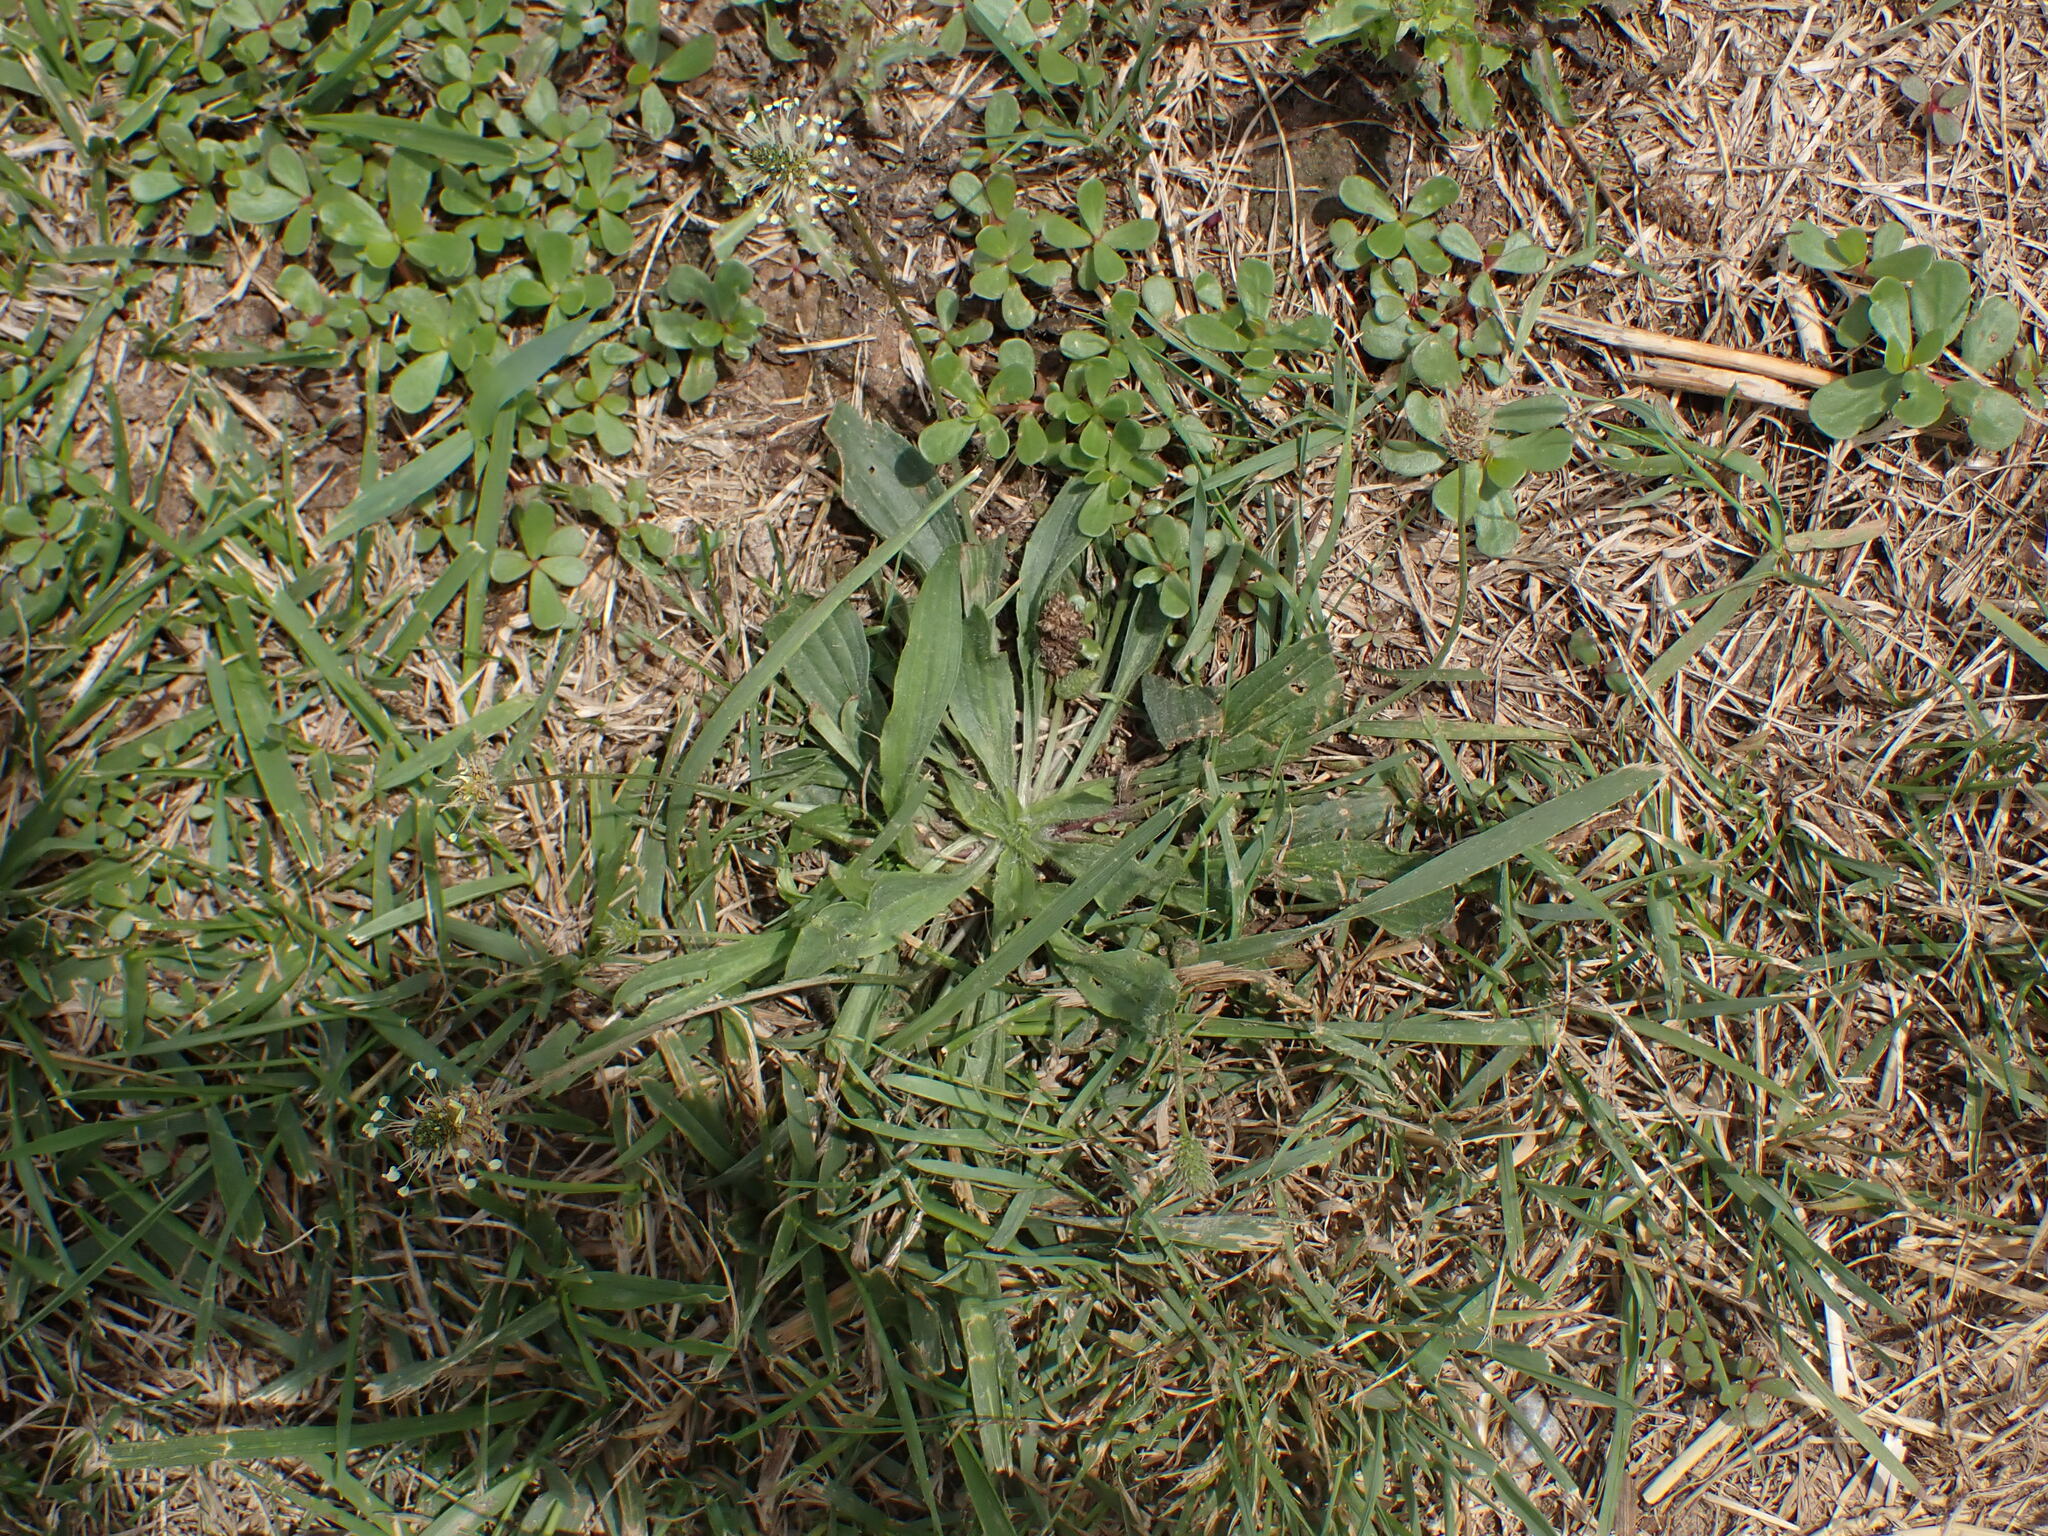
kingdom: Plantae
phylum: Tracheophyta
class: Magnoliopsida
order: Lamiales
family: Plantaginaceae
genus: Plantago
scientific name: Plantago lanceolata
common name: Ribwort plantain
